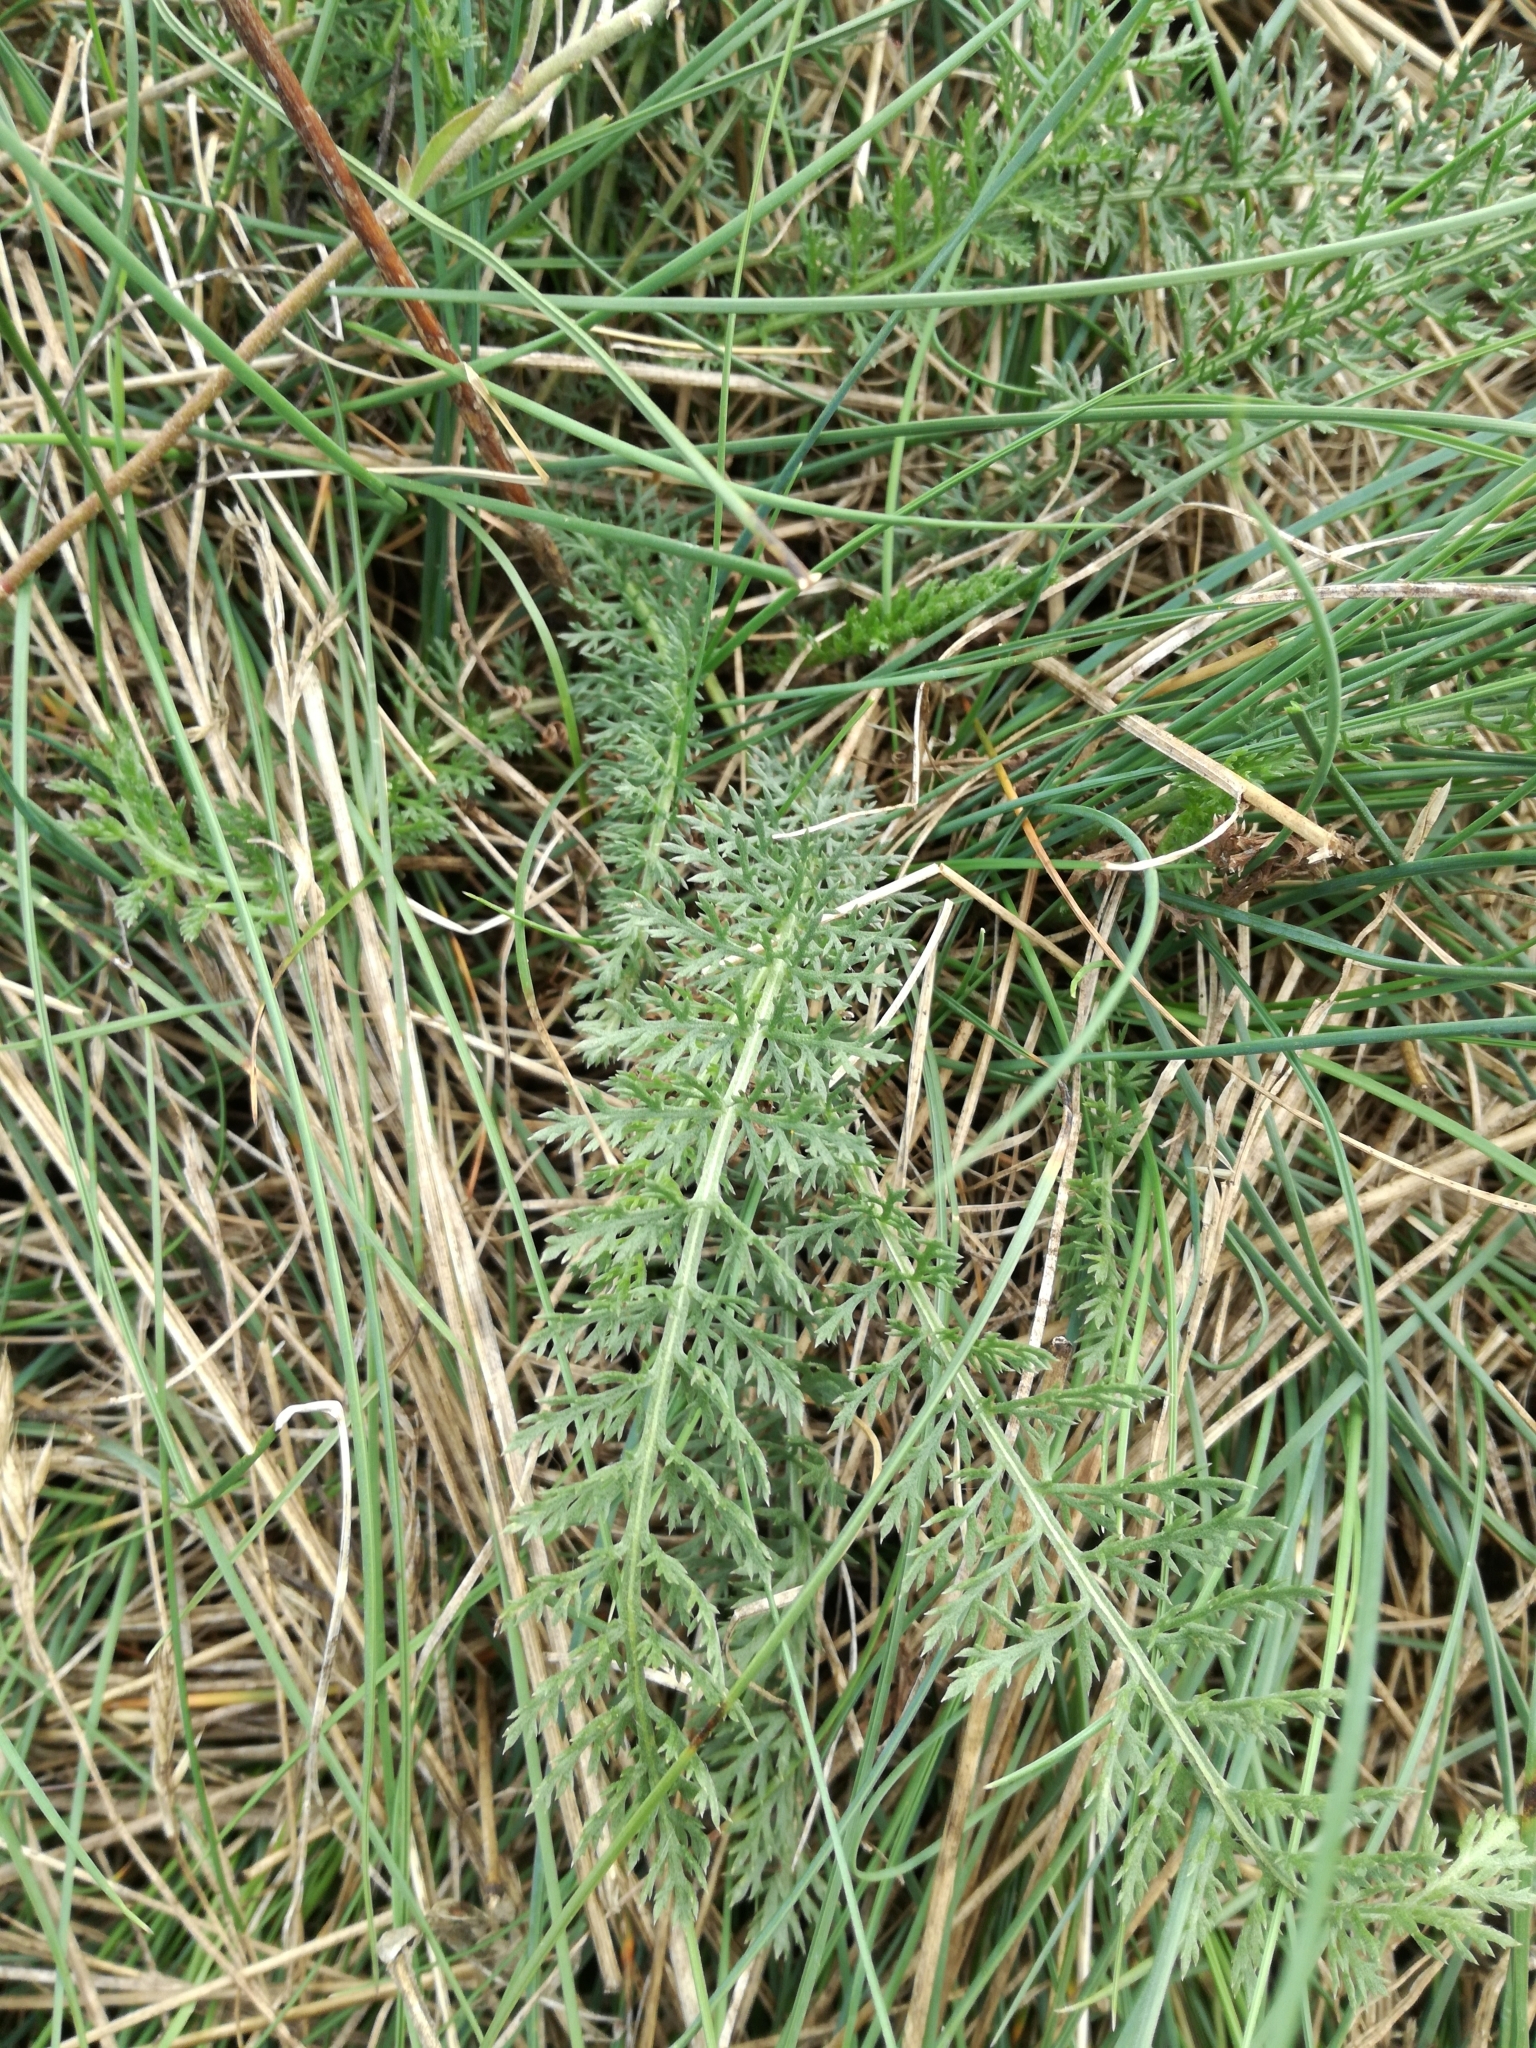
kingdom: Plantae
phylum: Tracheophyta
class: Magnoliopsida
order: Asterales
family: Asteraceae
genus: Achillea
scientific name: Achillea millefolium
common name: Yarrow
